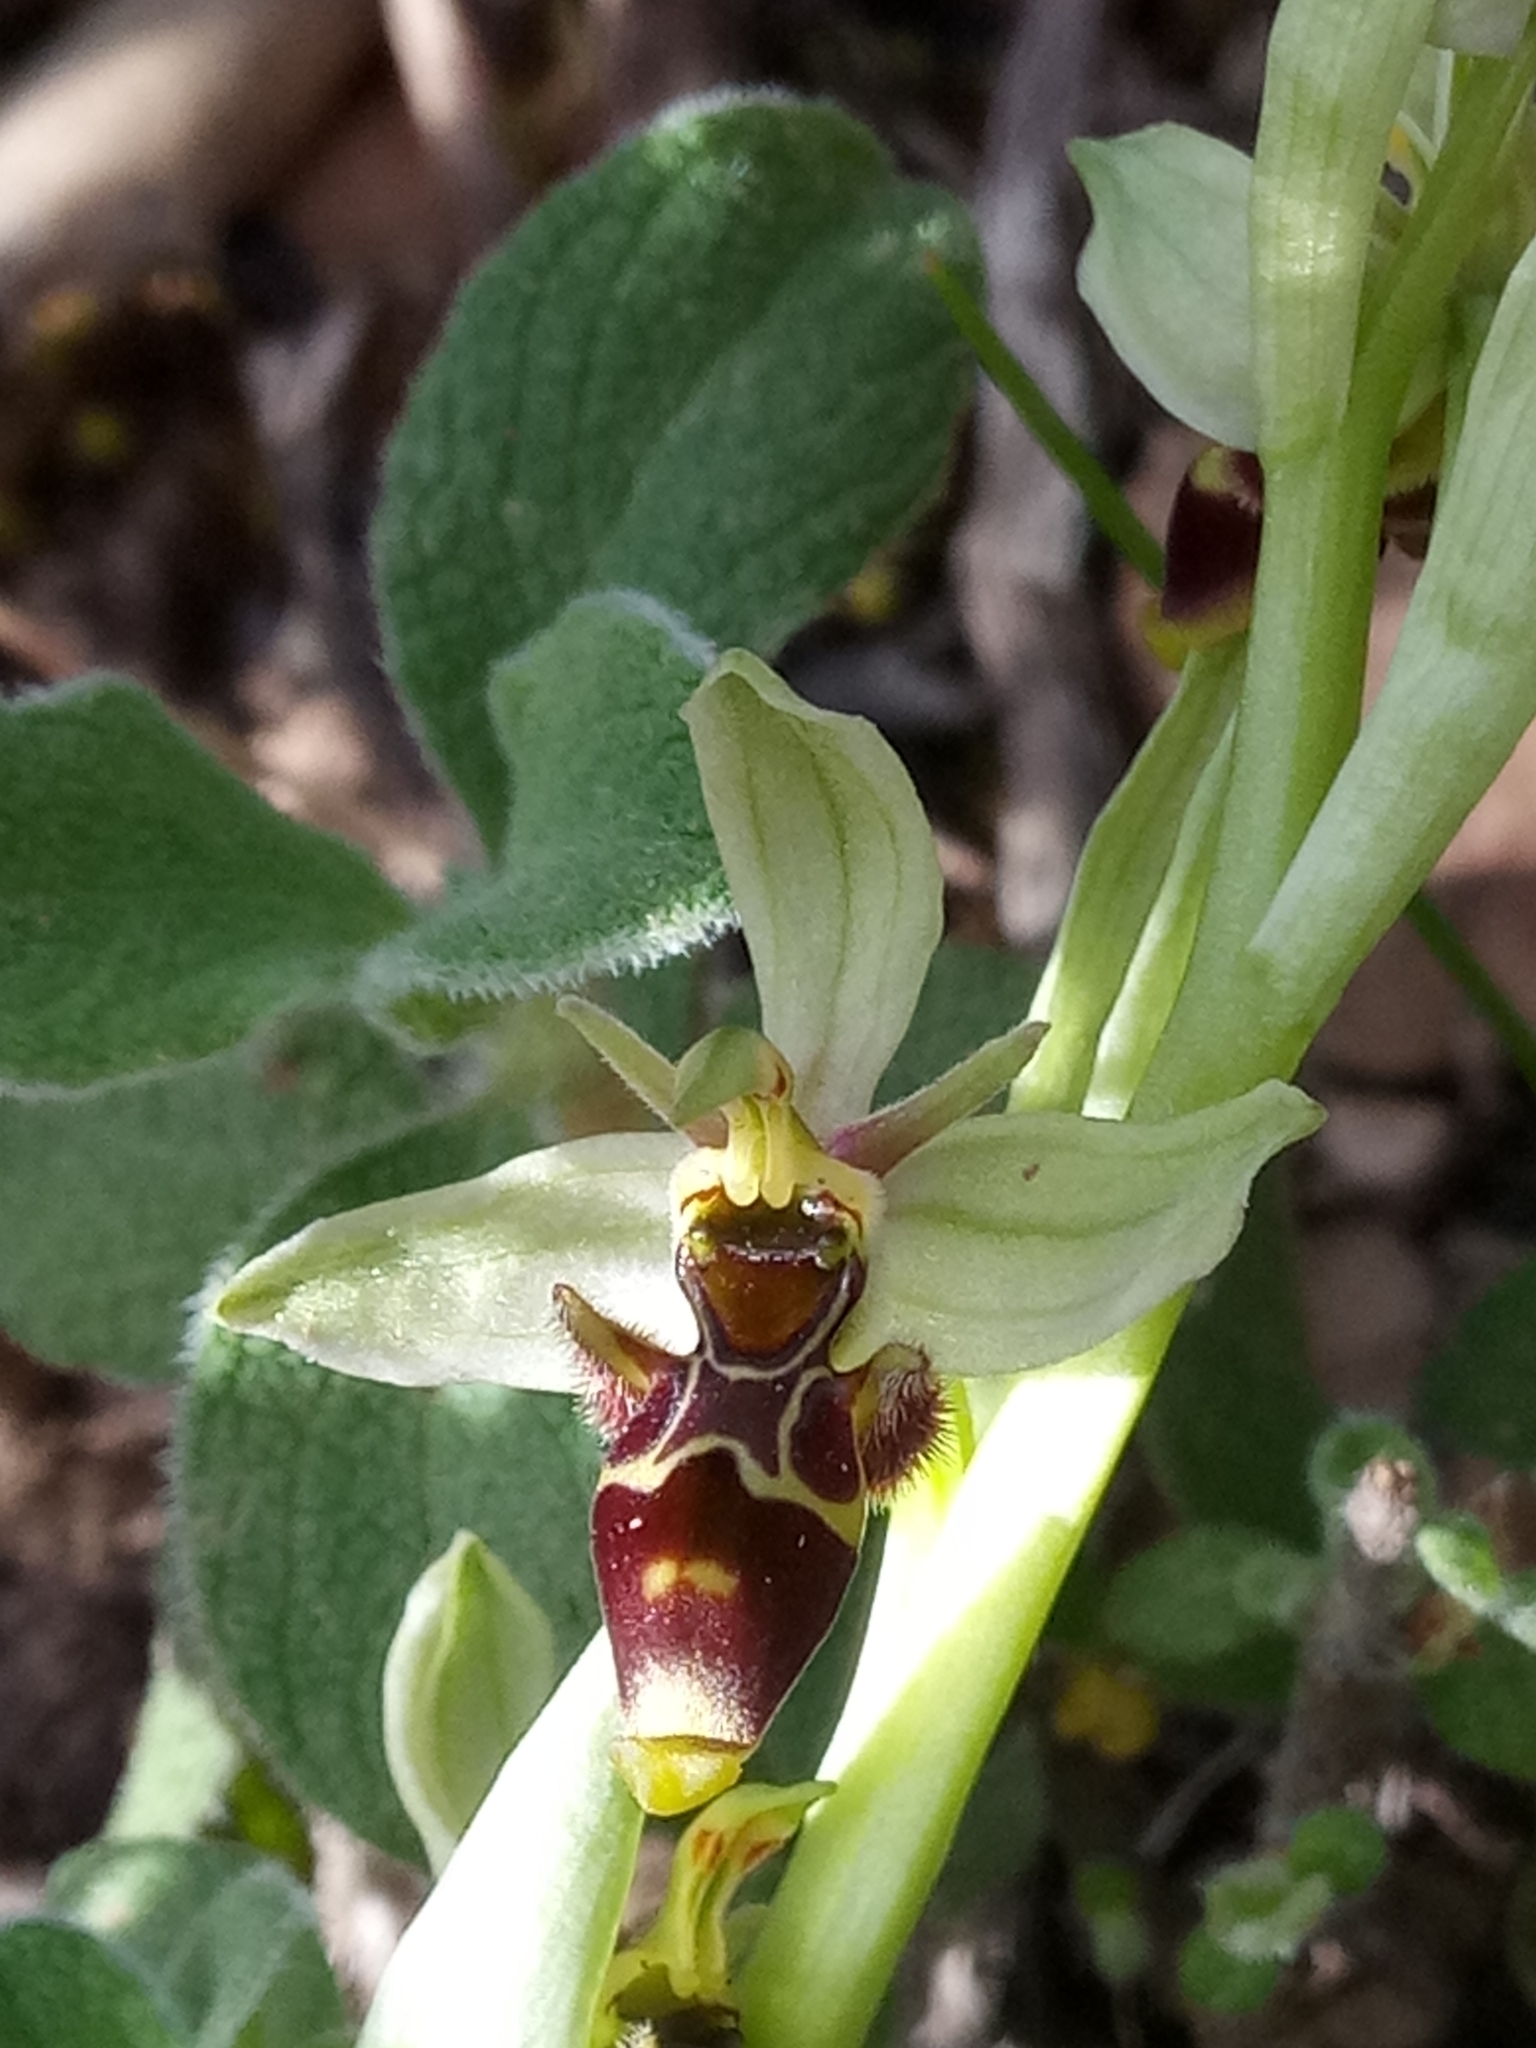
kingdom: Plantae
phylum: Tracheophyta
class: Liliopsida
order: Asparagales
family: Orchidaceae
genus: Ophrys
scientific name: Ophrys scolopax
